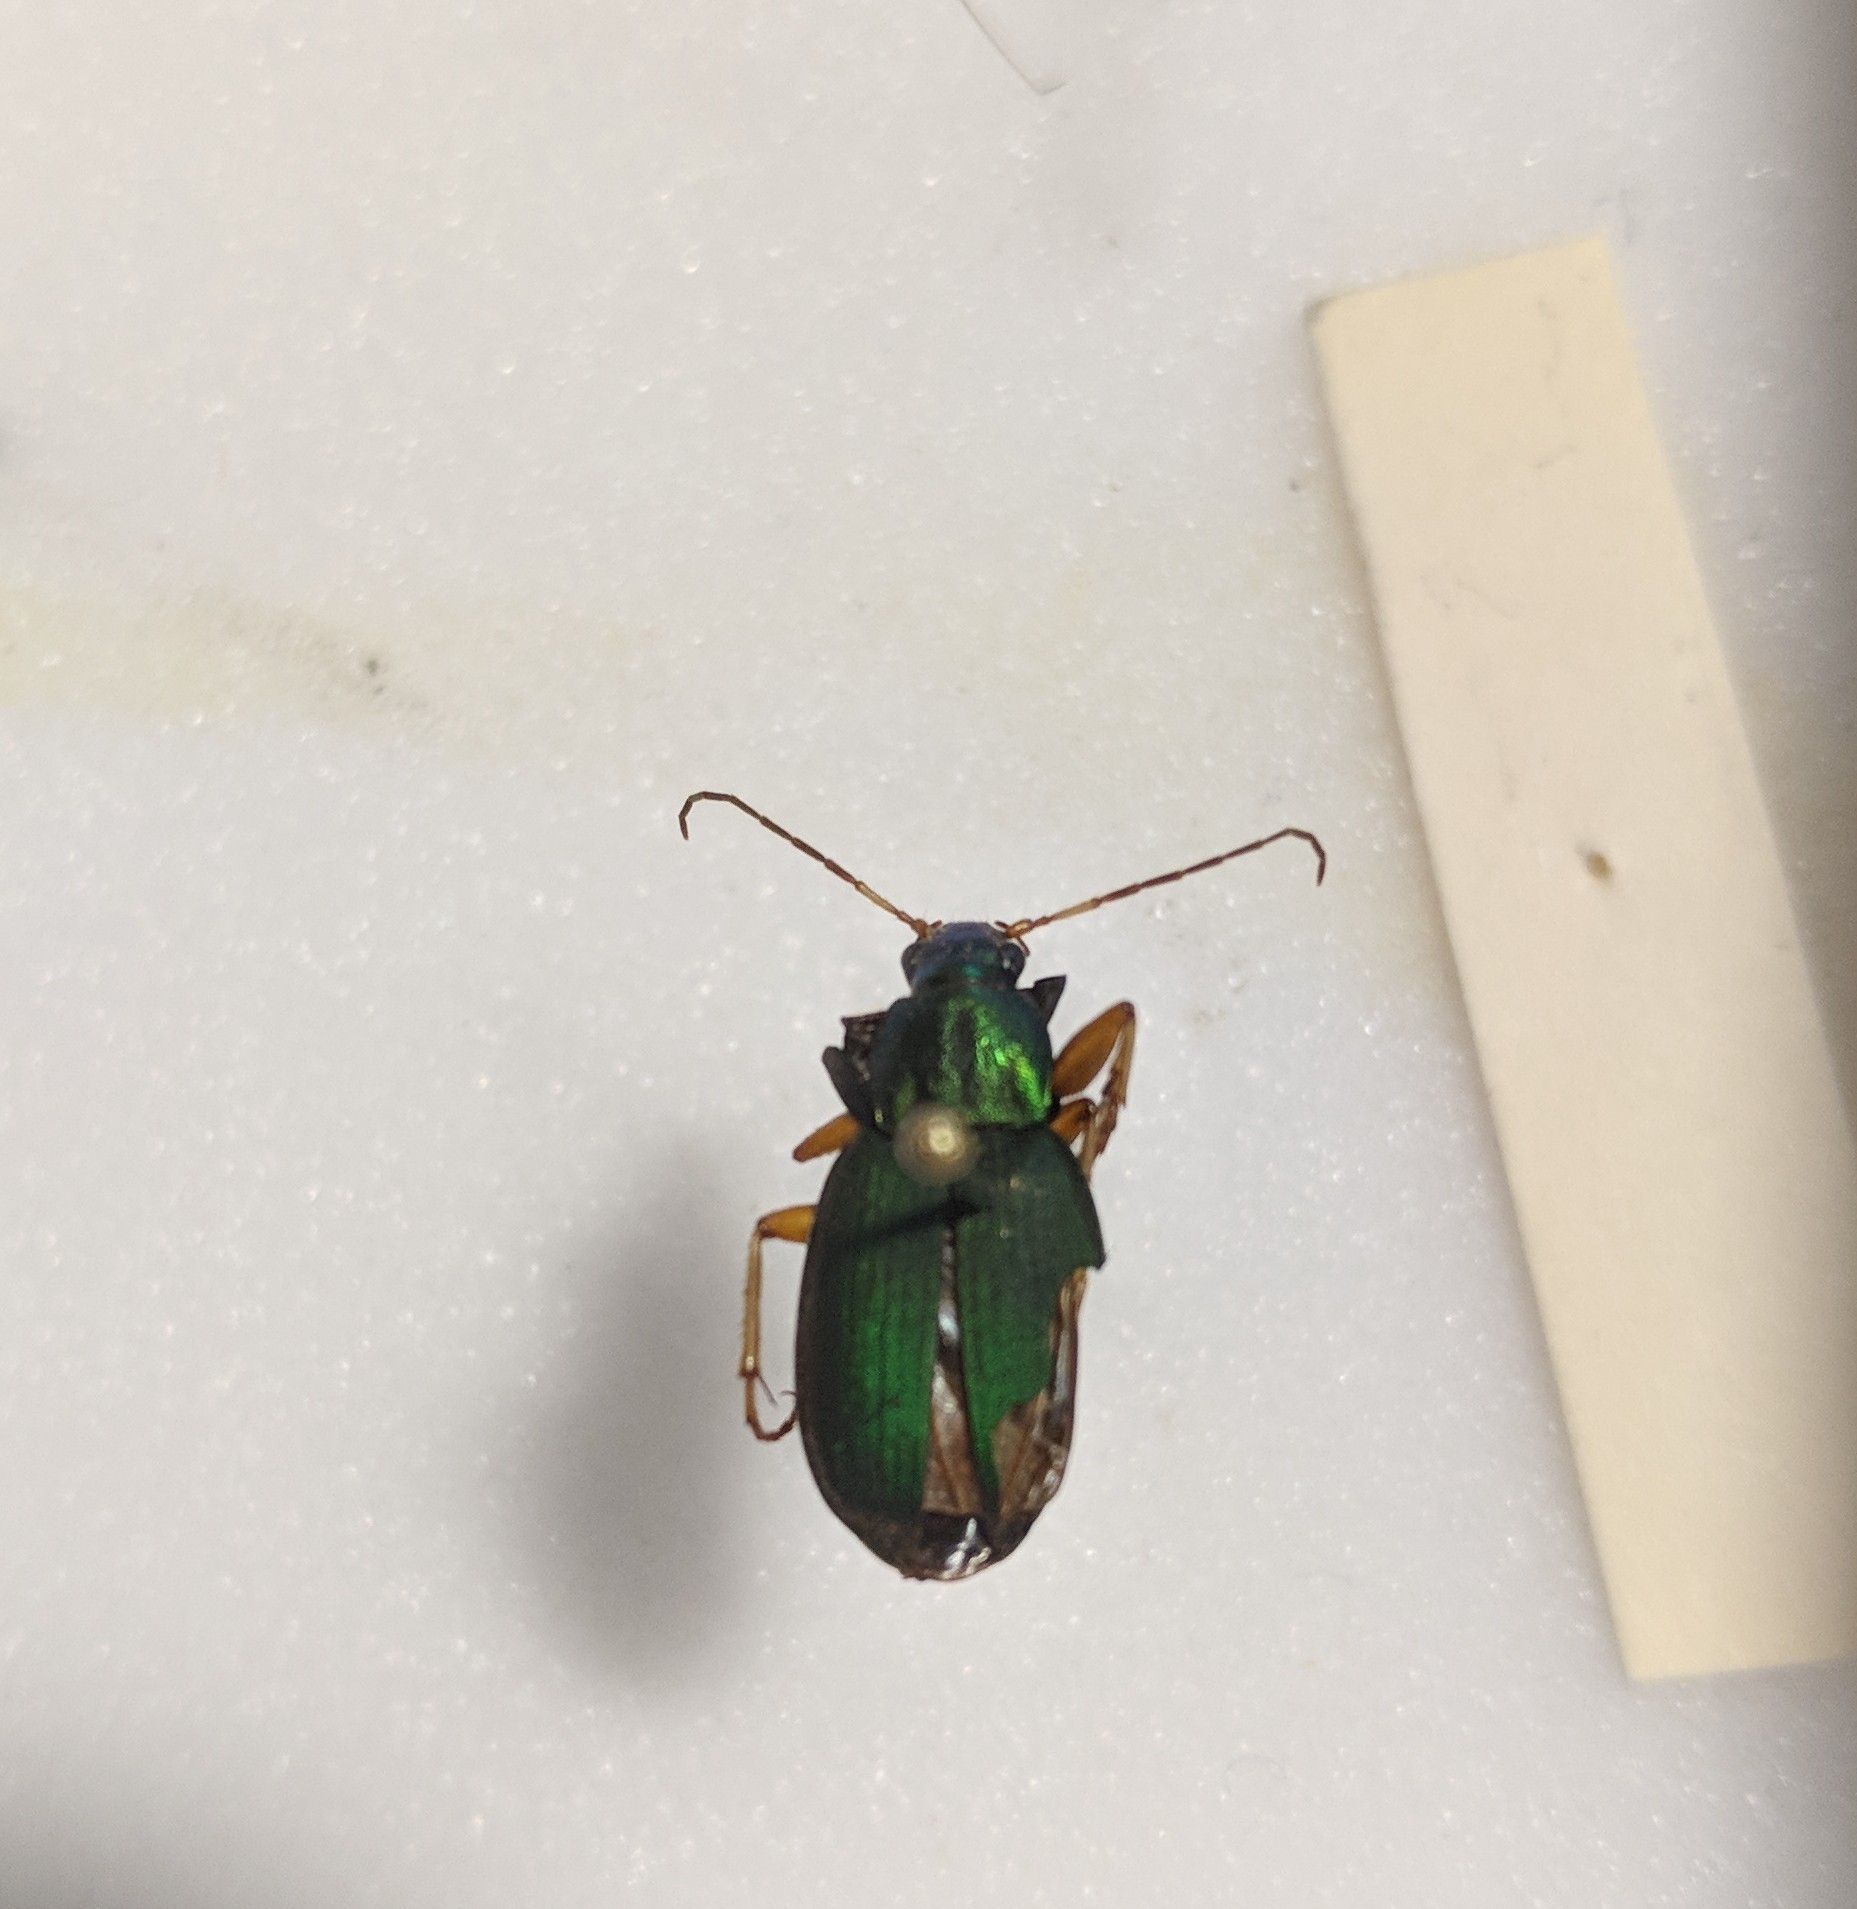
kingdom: Animalia
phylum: Arthropoda
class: Insecta
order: Coleoptera
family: Carabidae
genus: Chlaenius
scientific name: Chlaenius sericeus
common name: Green pubescent ground beetle
